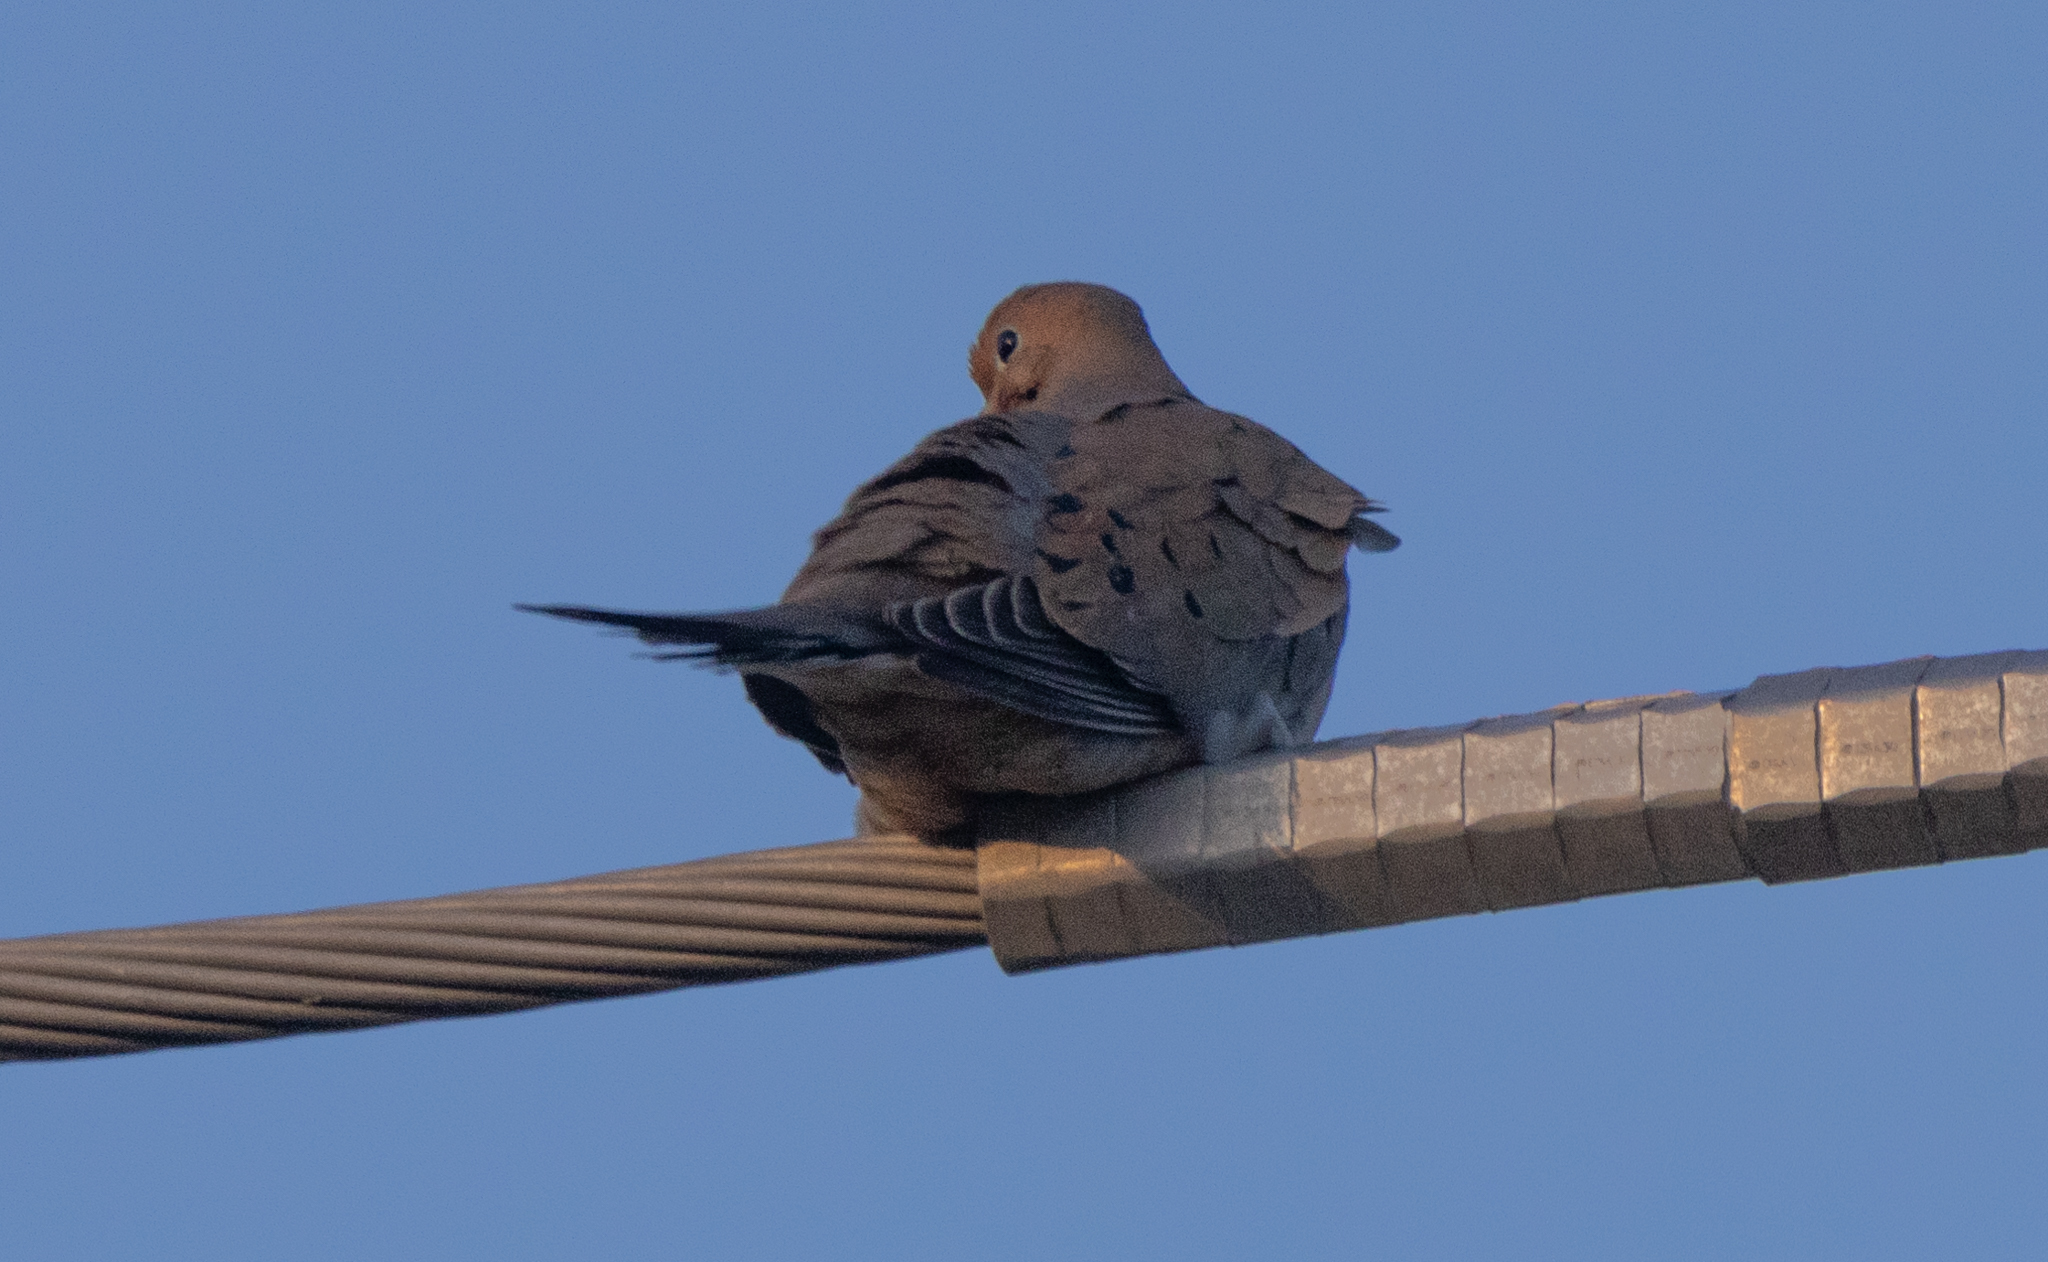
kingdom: Animalia
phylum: Chordata
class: Aves
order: Columbiformes
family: Columbidae
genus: Zenaida
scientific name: Zenaida macroura
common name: Mourning dove
